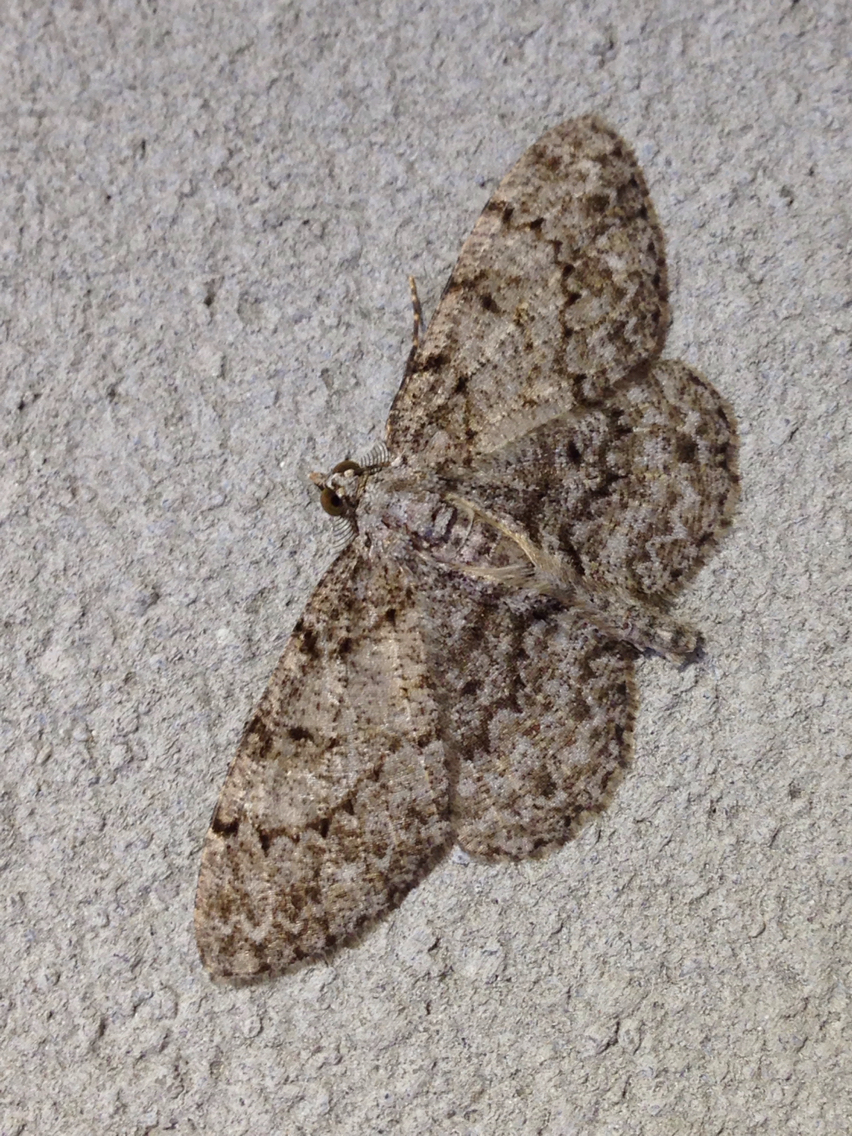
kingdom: Animalia
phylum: Arthropoda
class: Insecta
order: Lepidoptera
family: Geometridae
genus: Protoboarmia
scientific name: Protoboarmia porcelaria
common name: Porcelain gray
